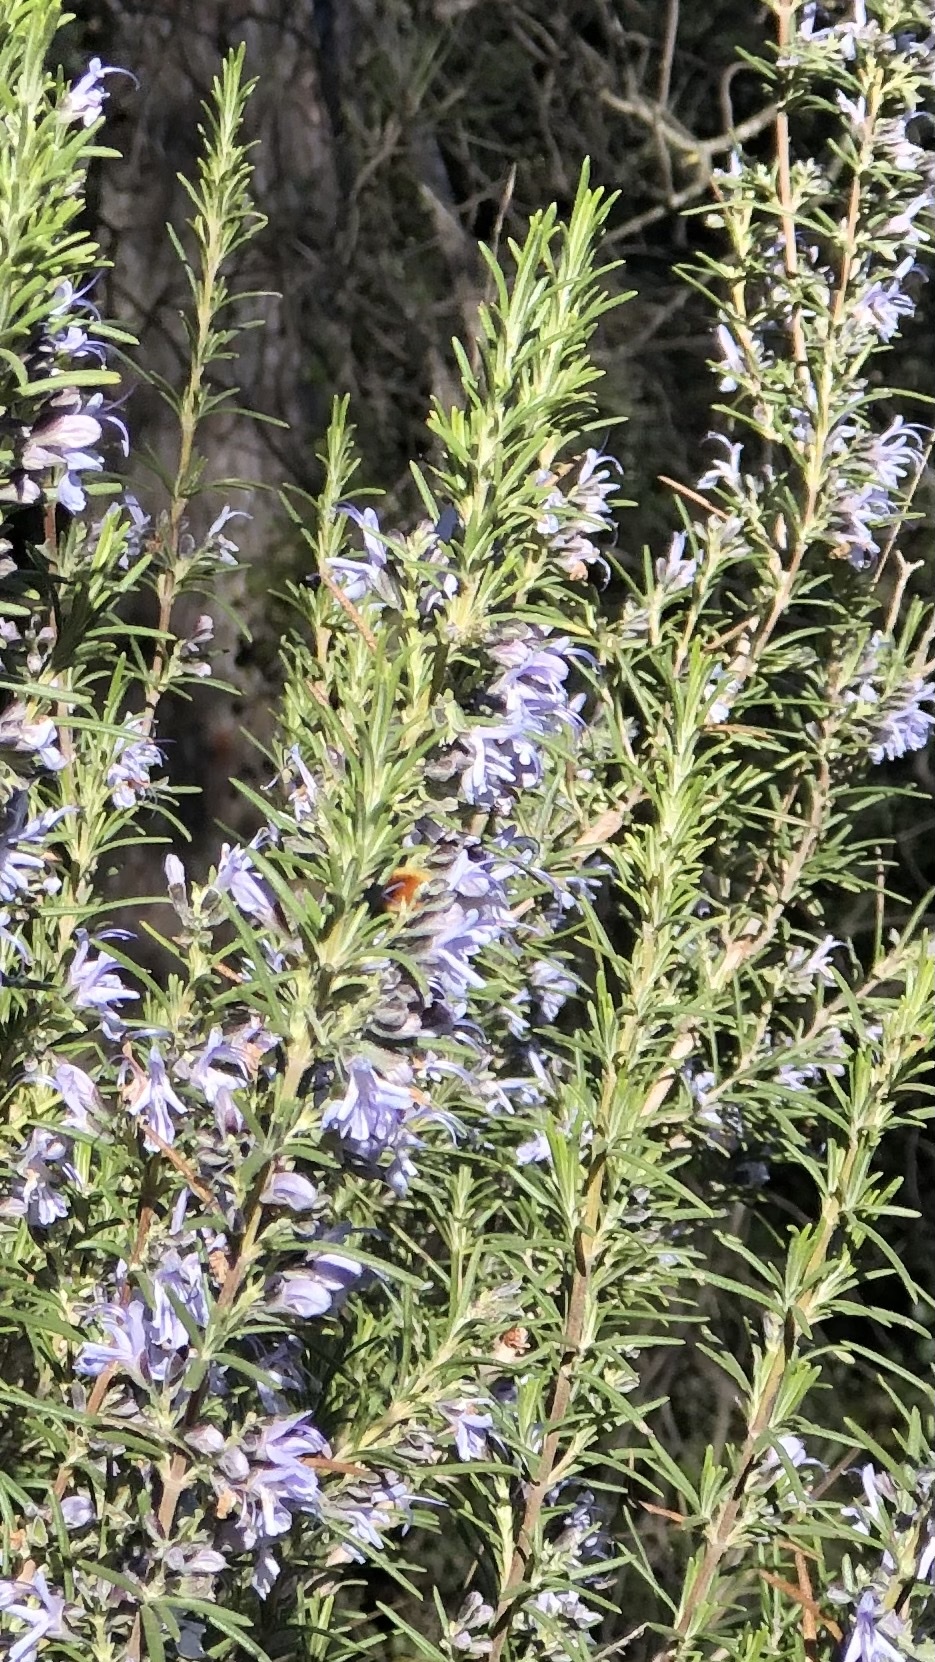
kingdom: Plantae
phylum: Tracheophyta
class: Magnoliopsida
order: Lamiales
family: Lamiaceae
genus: Salvia
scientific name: Salvia rosmarinus
